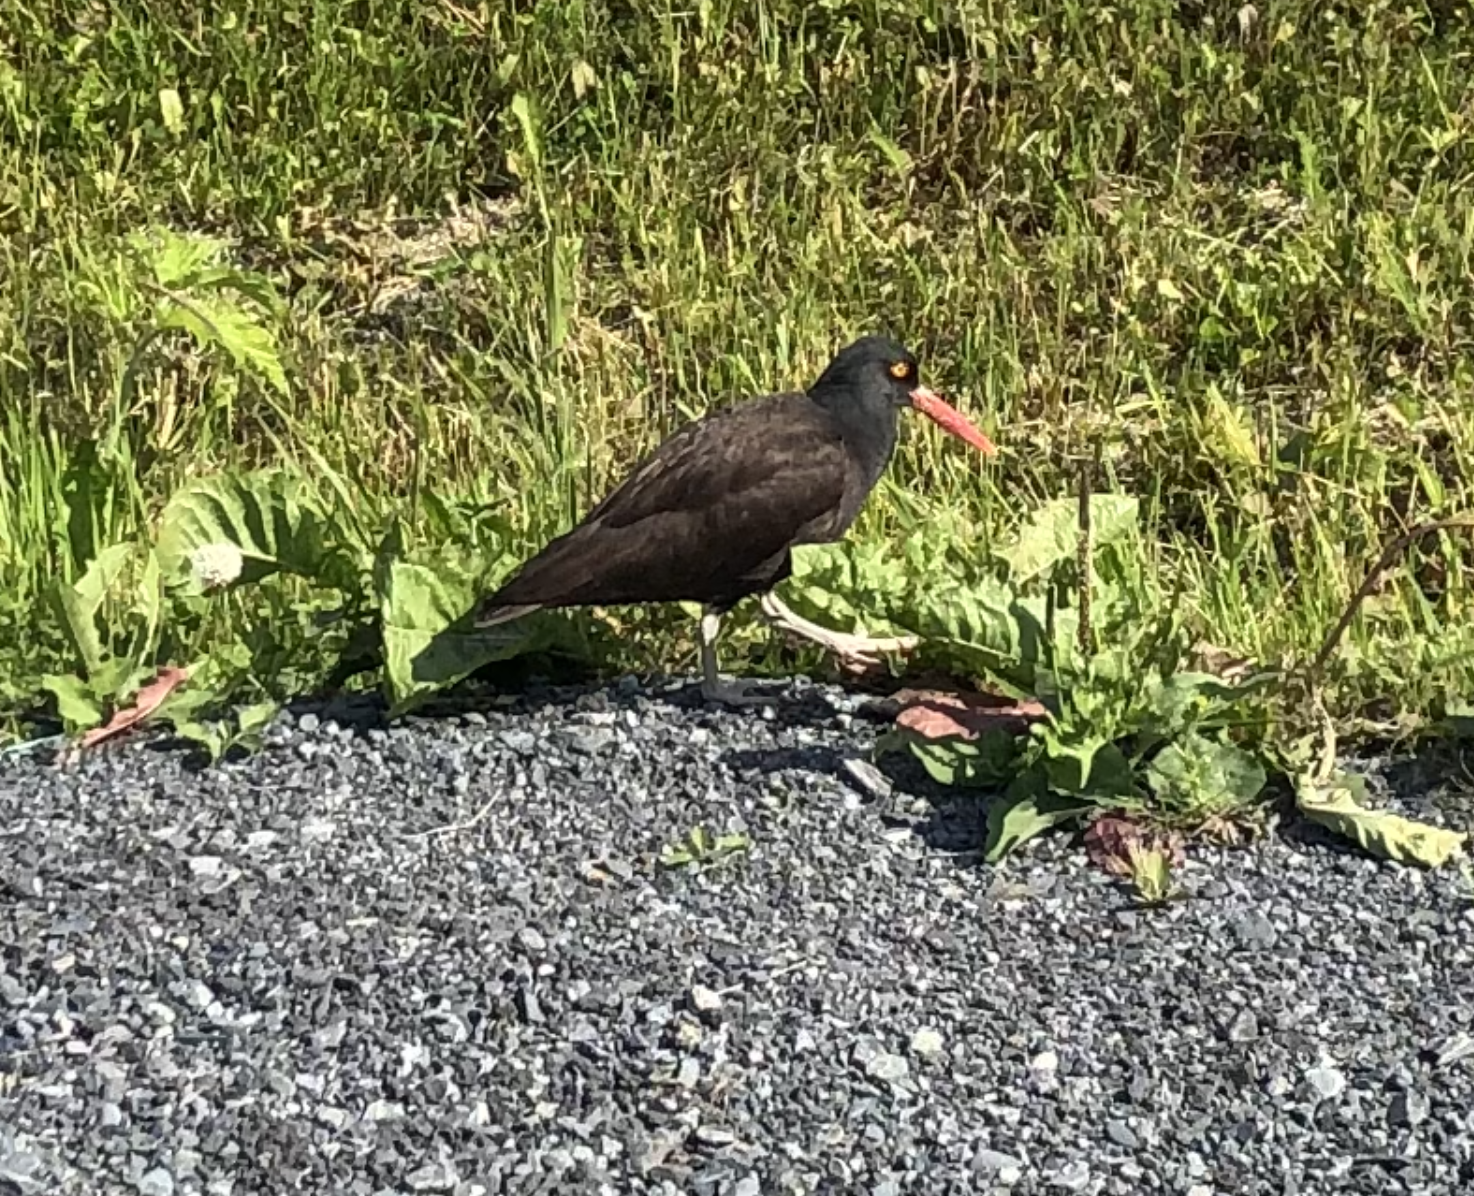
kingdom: Animalia
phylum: Chordata
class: Aves
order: Charadriiformes
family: Haematopodidae
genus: Haematopus
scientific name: Haematopus bachmani
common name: Black oystercatcher
